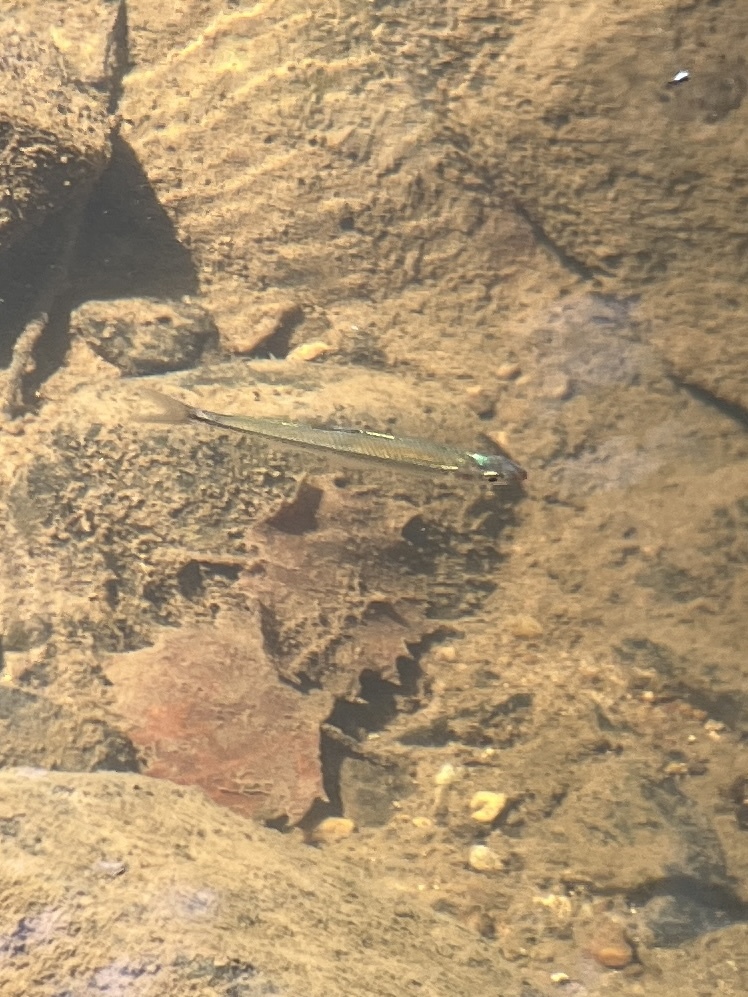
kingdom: Animalia
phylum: Chordata
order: Cypriniformes
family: Cyprinidae
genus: Lythrurus
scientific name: Lythrurus matutinus
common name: Pinewoods shiner
